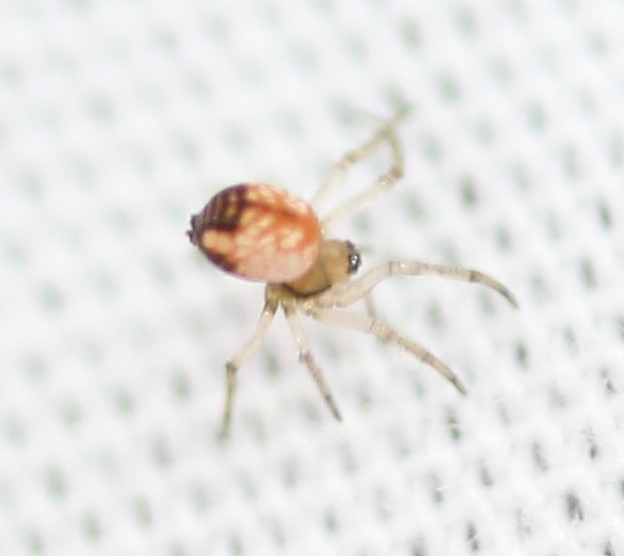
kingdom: Animalia
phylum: Arthropoda
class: Arachnida
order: Araneae
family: Tetragnathidae
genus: Leucauge
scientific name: Leucauge venusta
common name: Longjawed orb weavers
